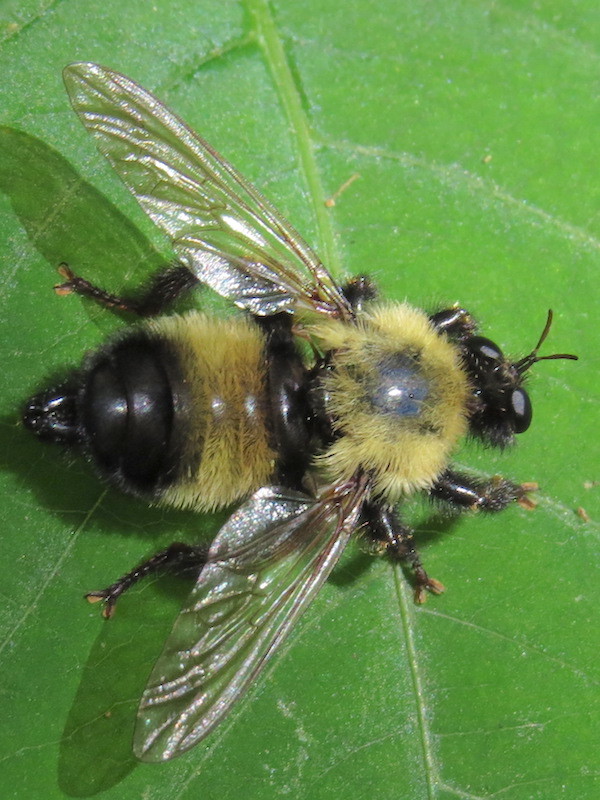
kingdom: Animalia
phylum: Arthropoda
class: Insecta
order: Diptera
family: Asilidae
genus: Laphria
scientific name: Laphria thoracica
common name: Bumble bee mimic robber fly
